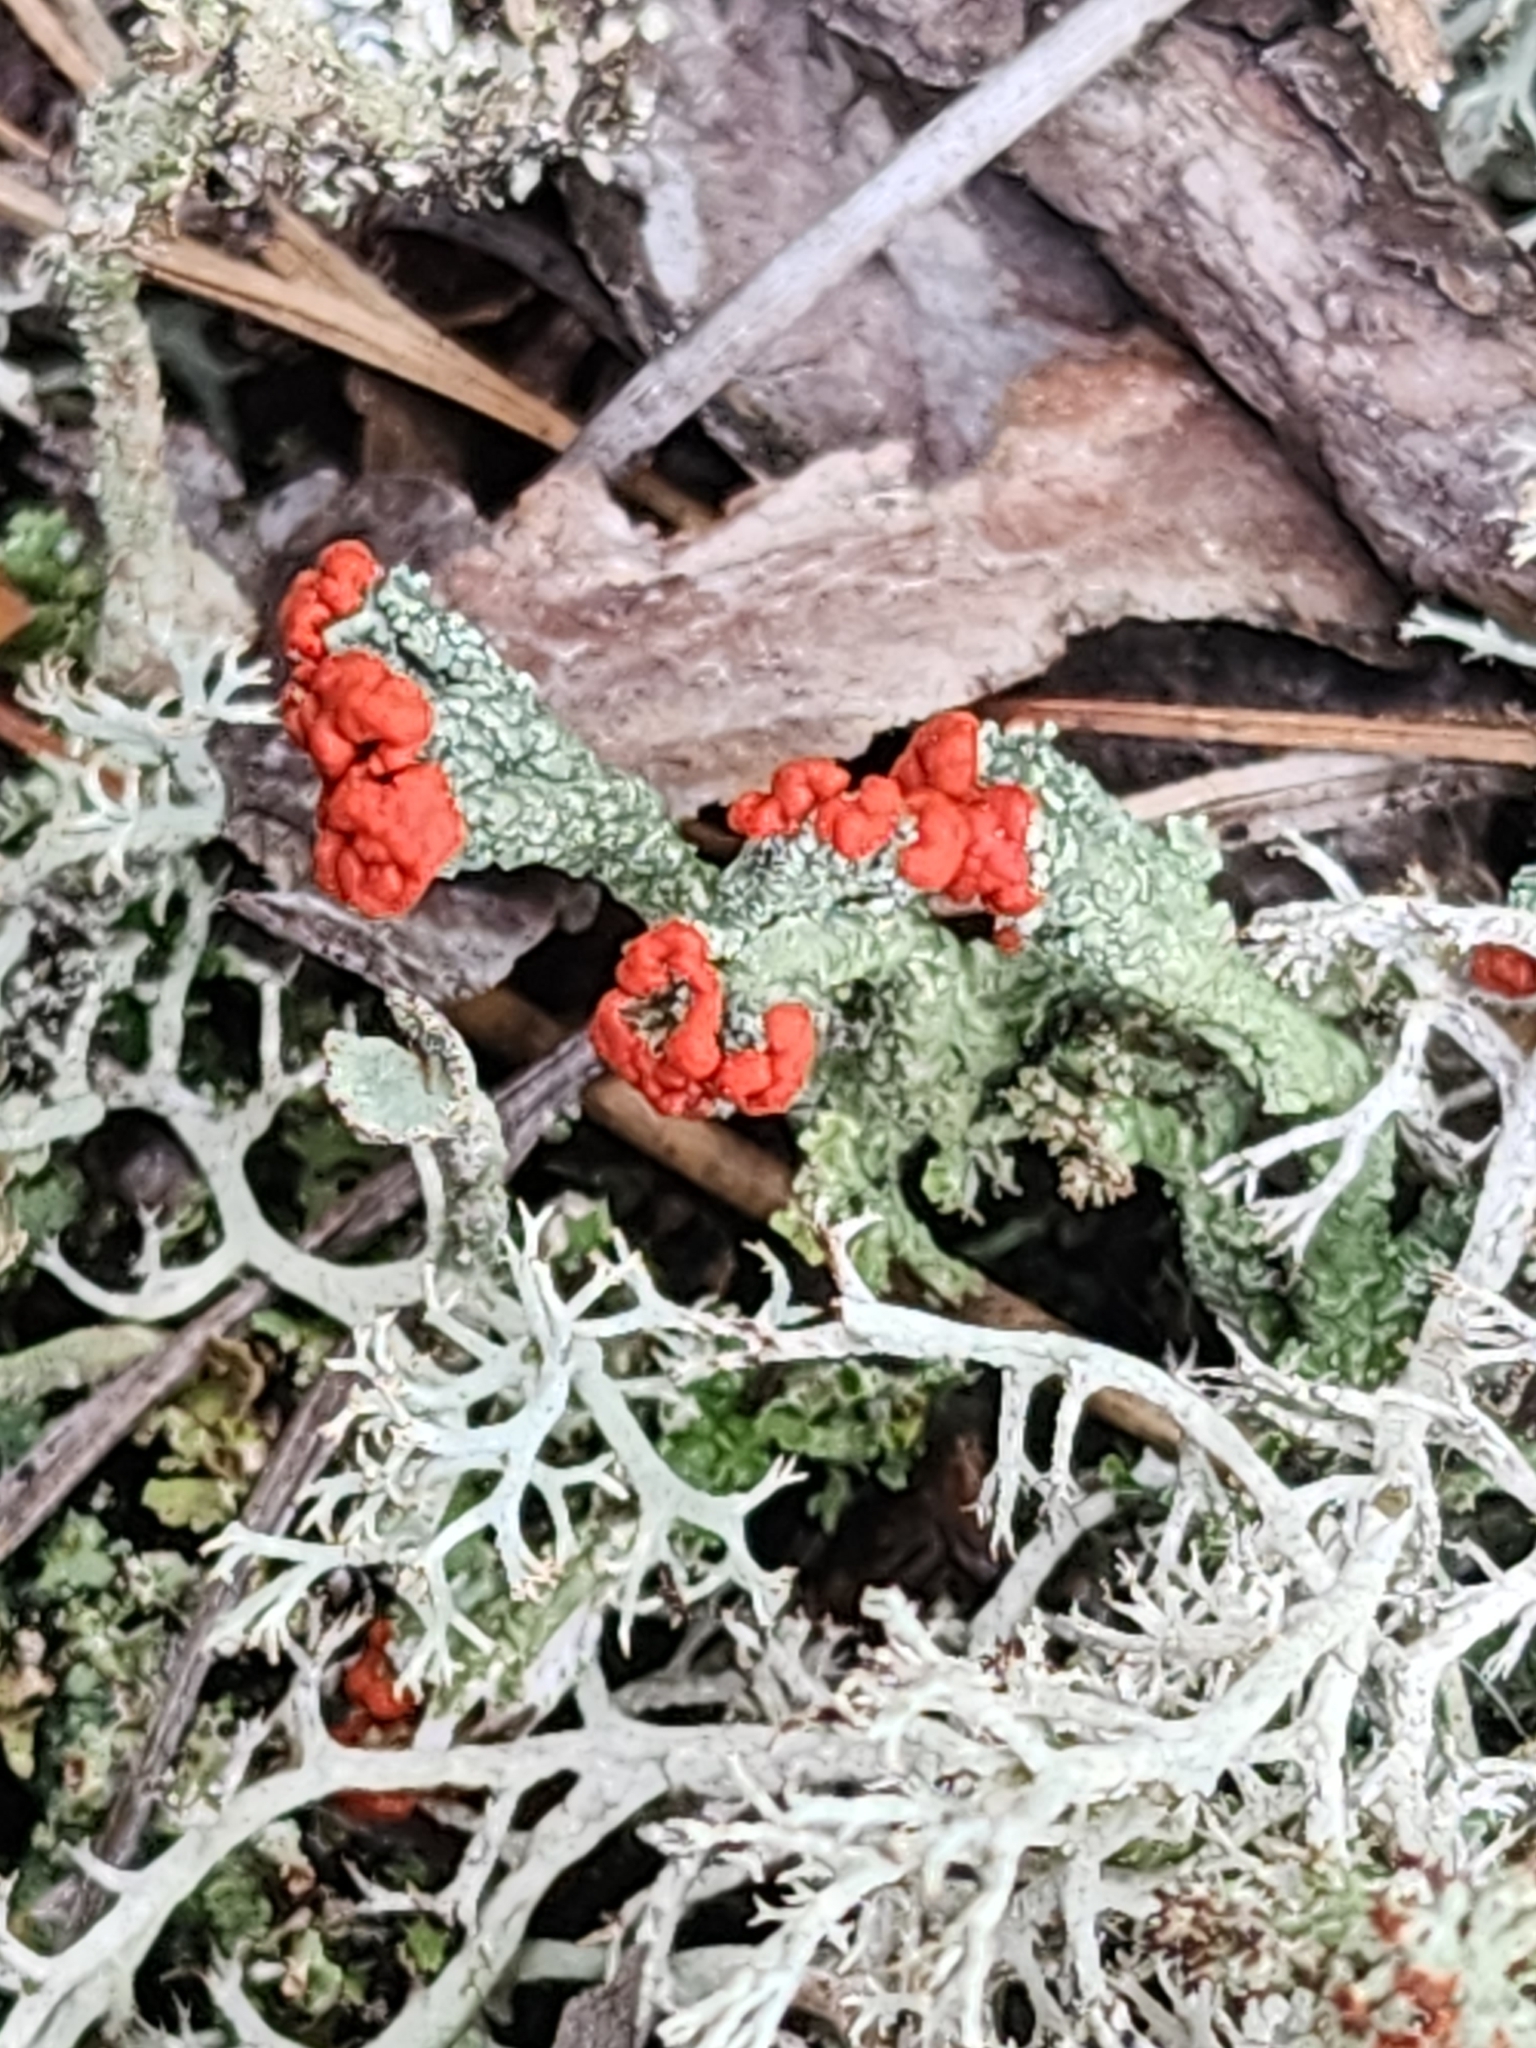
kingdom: Fungi
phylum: Ascomycota
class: Lecanoromycetes
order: Lecanorales
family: Cladoniaceae
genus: Cladonia
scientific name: Cladonia cristatella
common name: British soldier lichen
